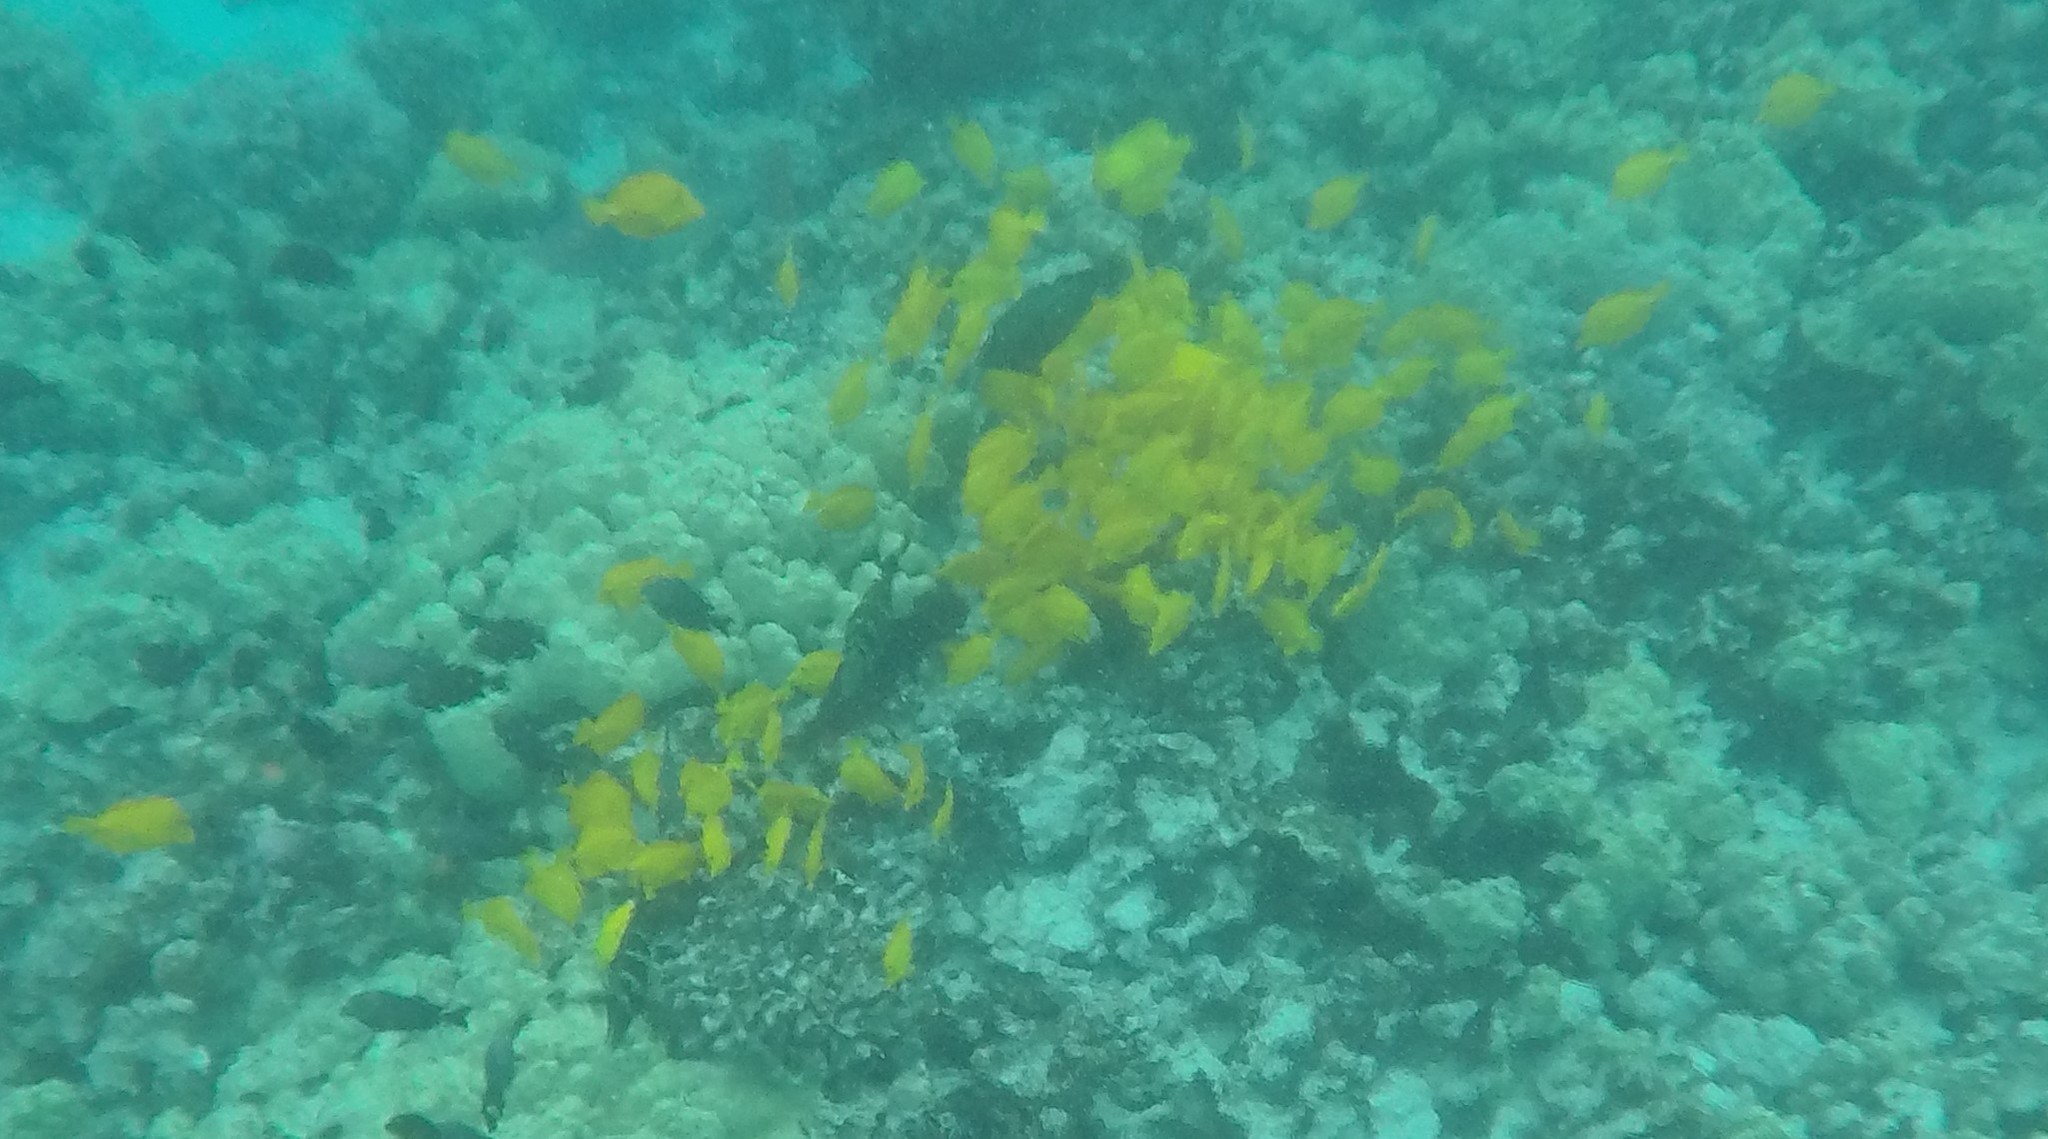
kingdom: Animalia
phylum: Chordata
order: Perciformes
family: Acanthuridae
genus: Zebrasoma
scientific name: Zebrasoma flavescens
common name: Yellow tang
